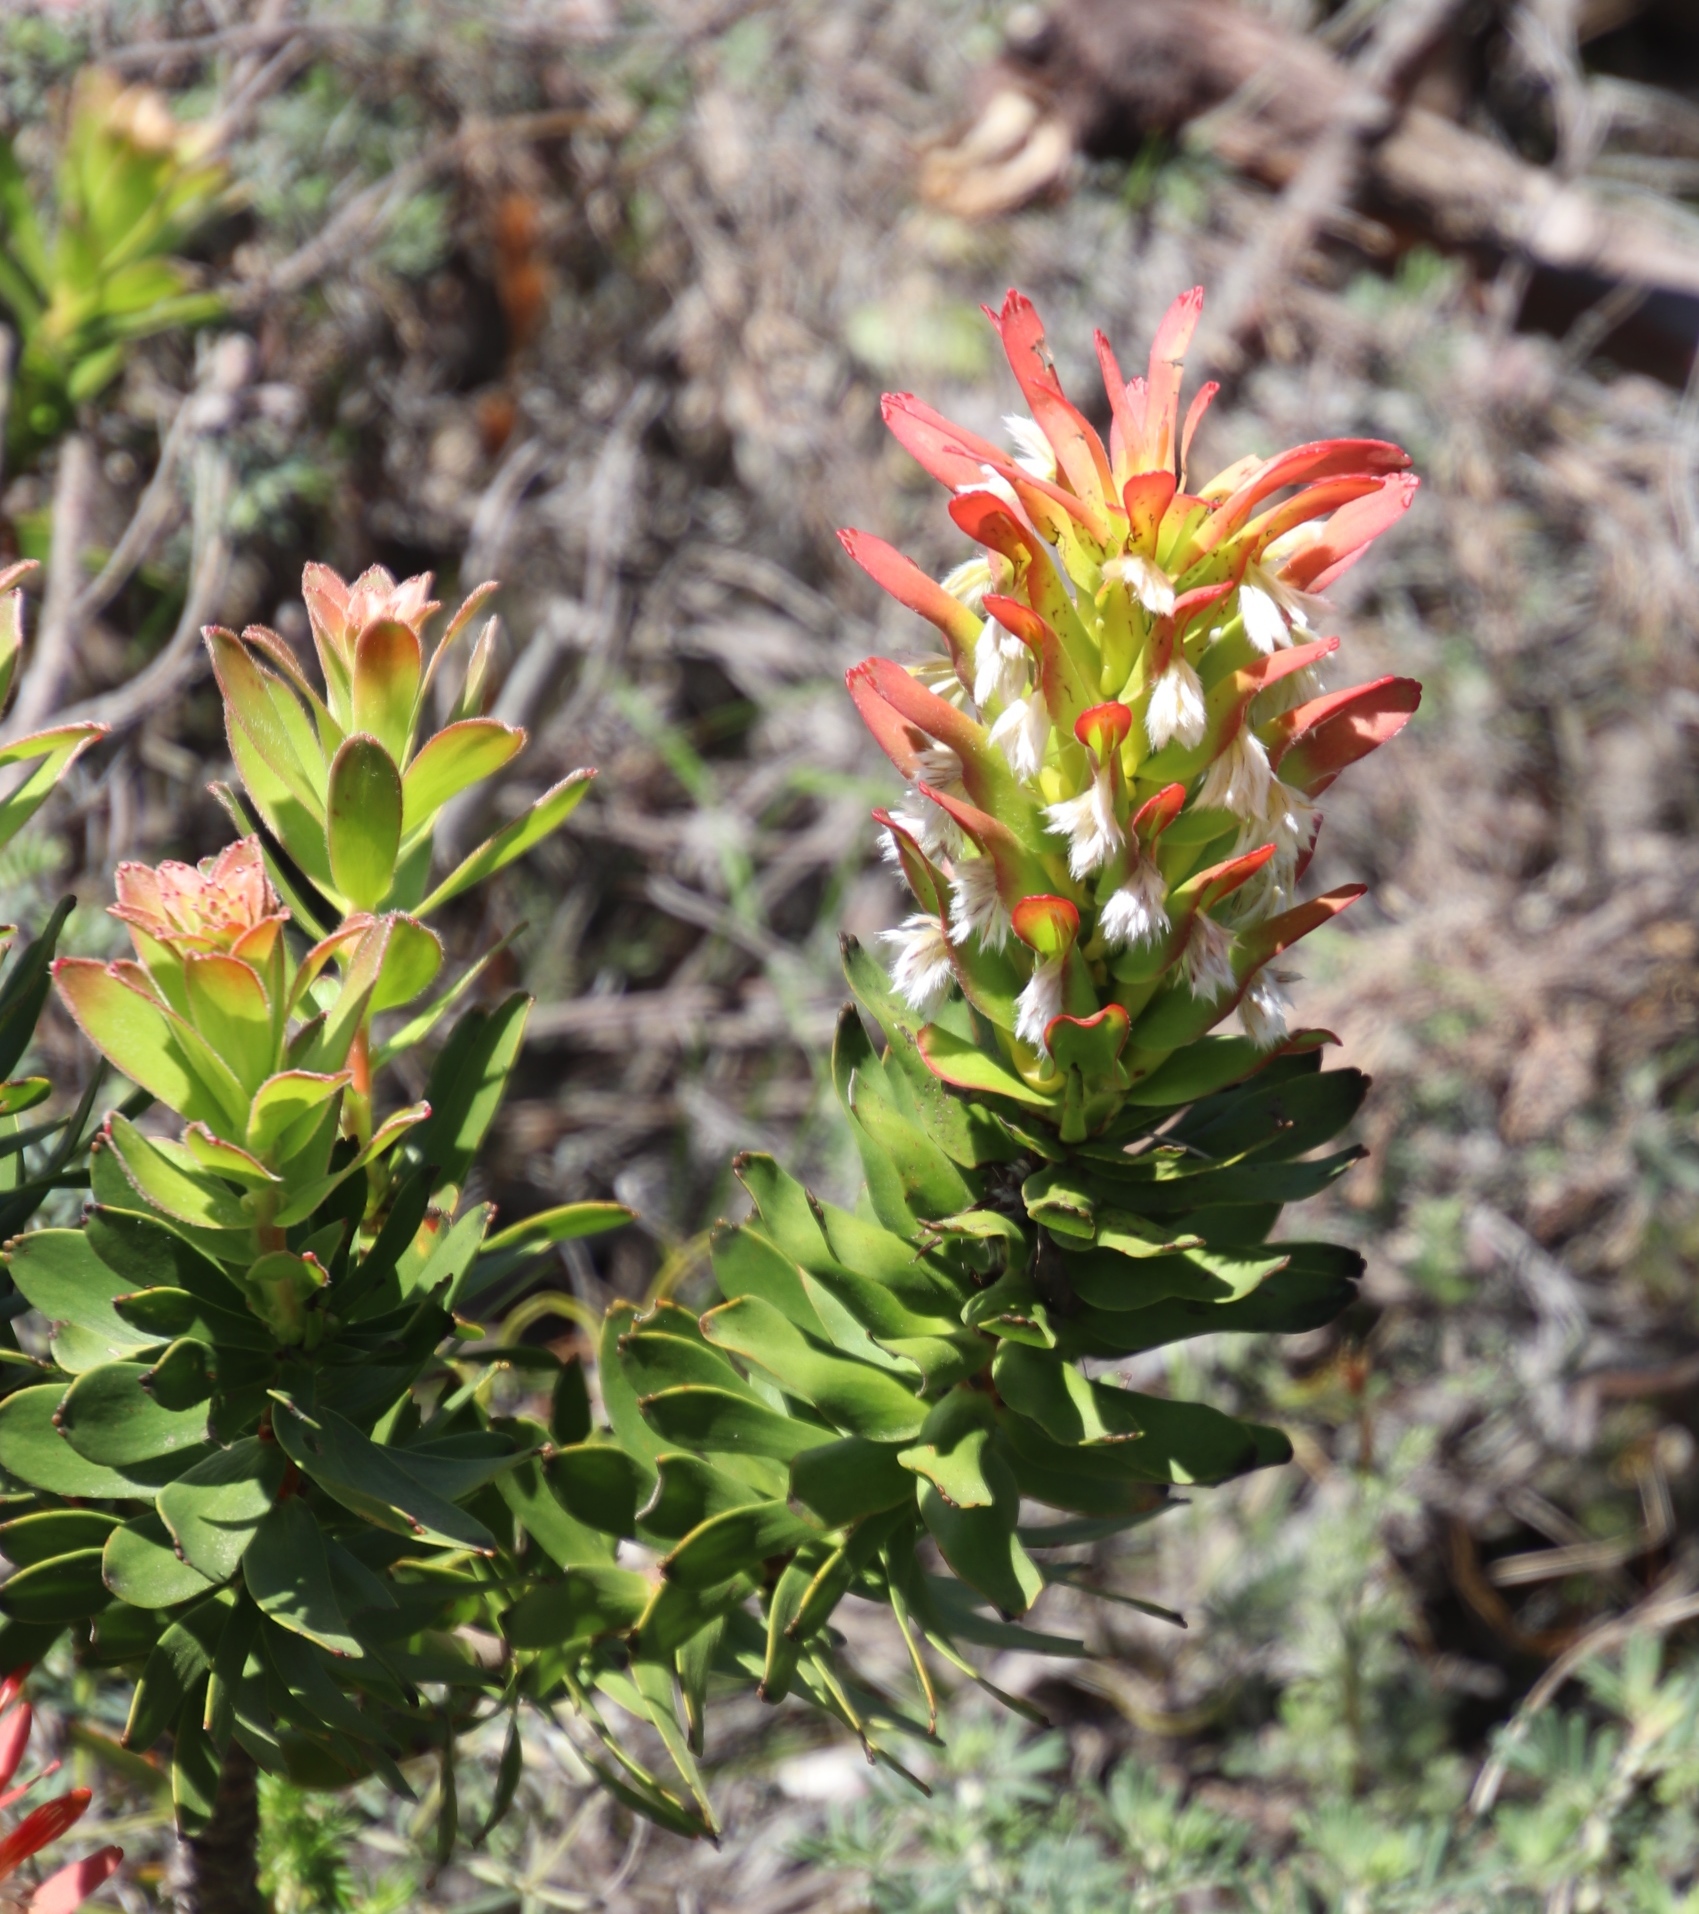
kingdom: Plantae
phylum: Tracheophyta
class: Magnoliopsida
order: Proteales
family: Proteaceae
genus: Mimetes
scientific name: Mimetes cucullatus
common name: Common pagoda
